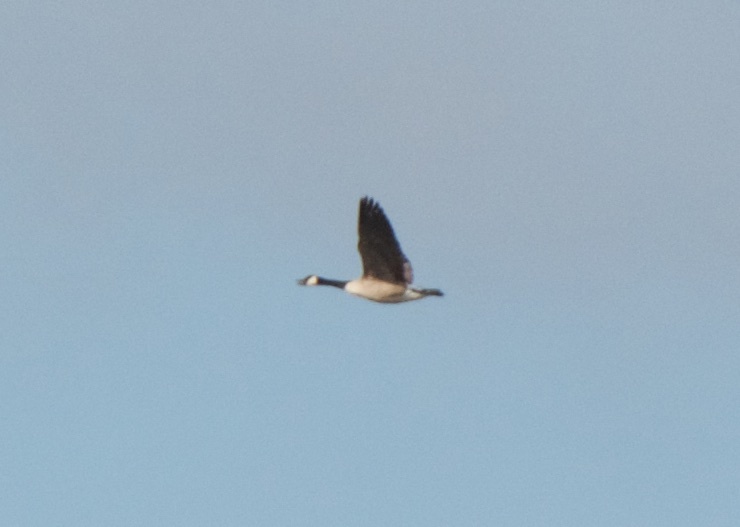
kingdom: Animalia
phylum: Chordata
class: Aves
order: Anseriformes
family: Anatidae
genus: Branta
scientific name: Branta canadensis
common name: Canada goose
